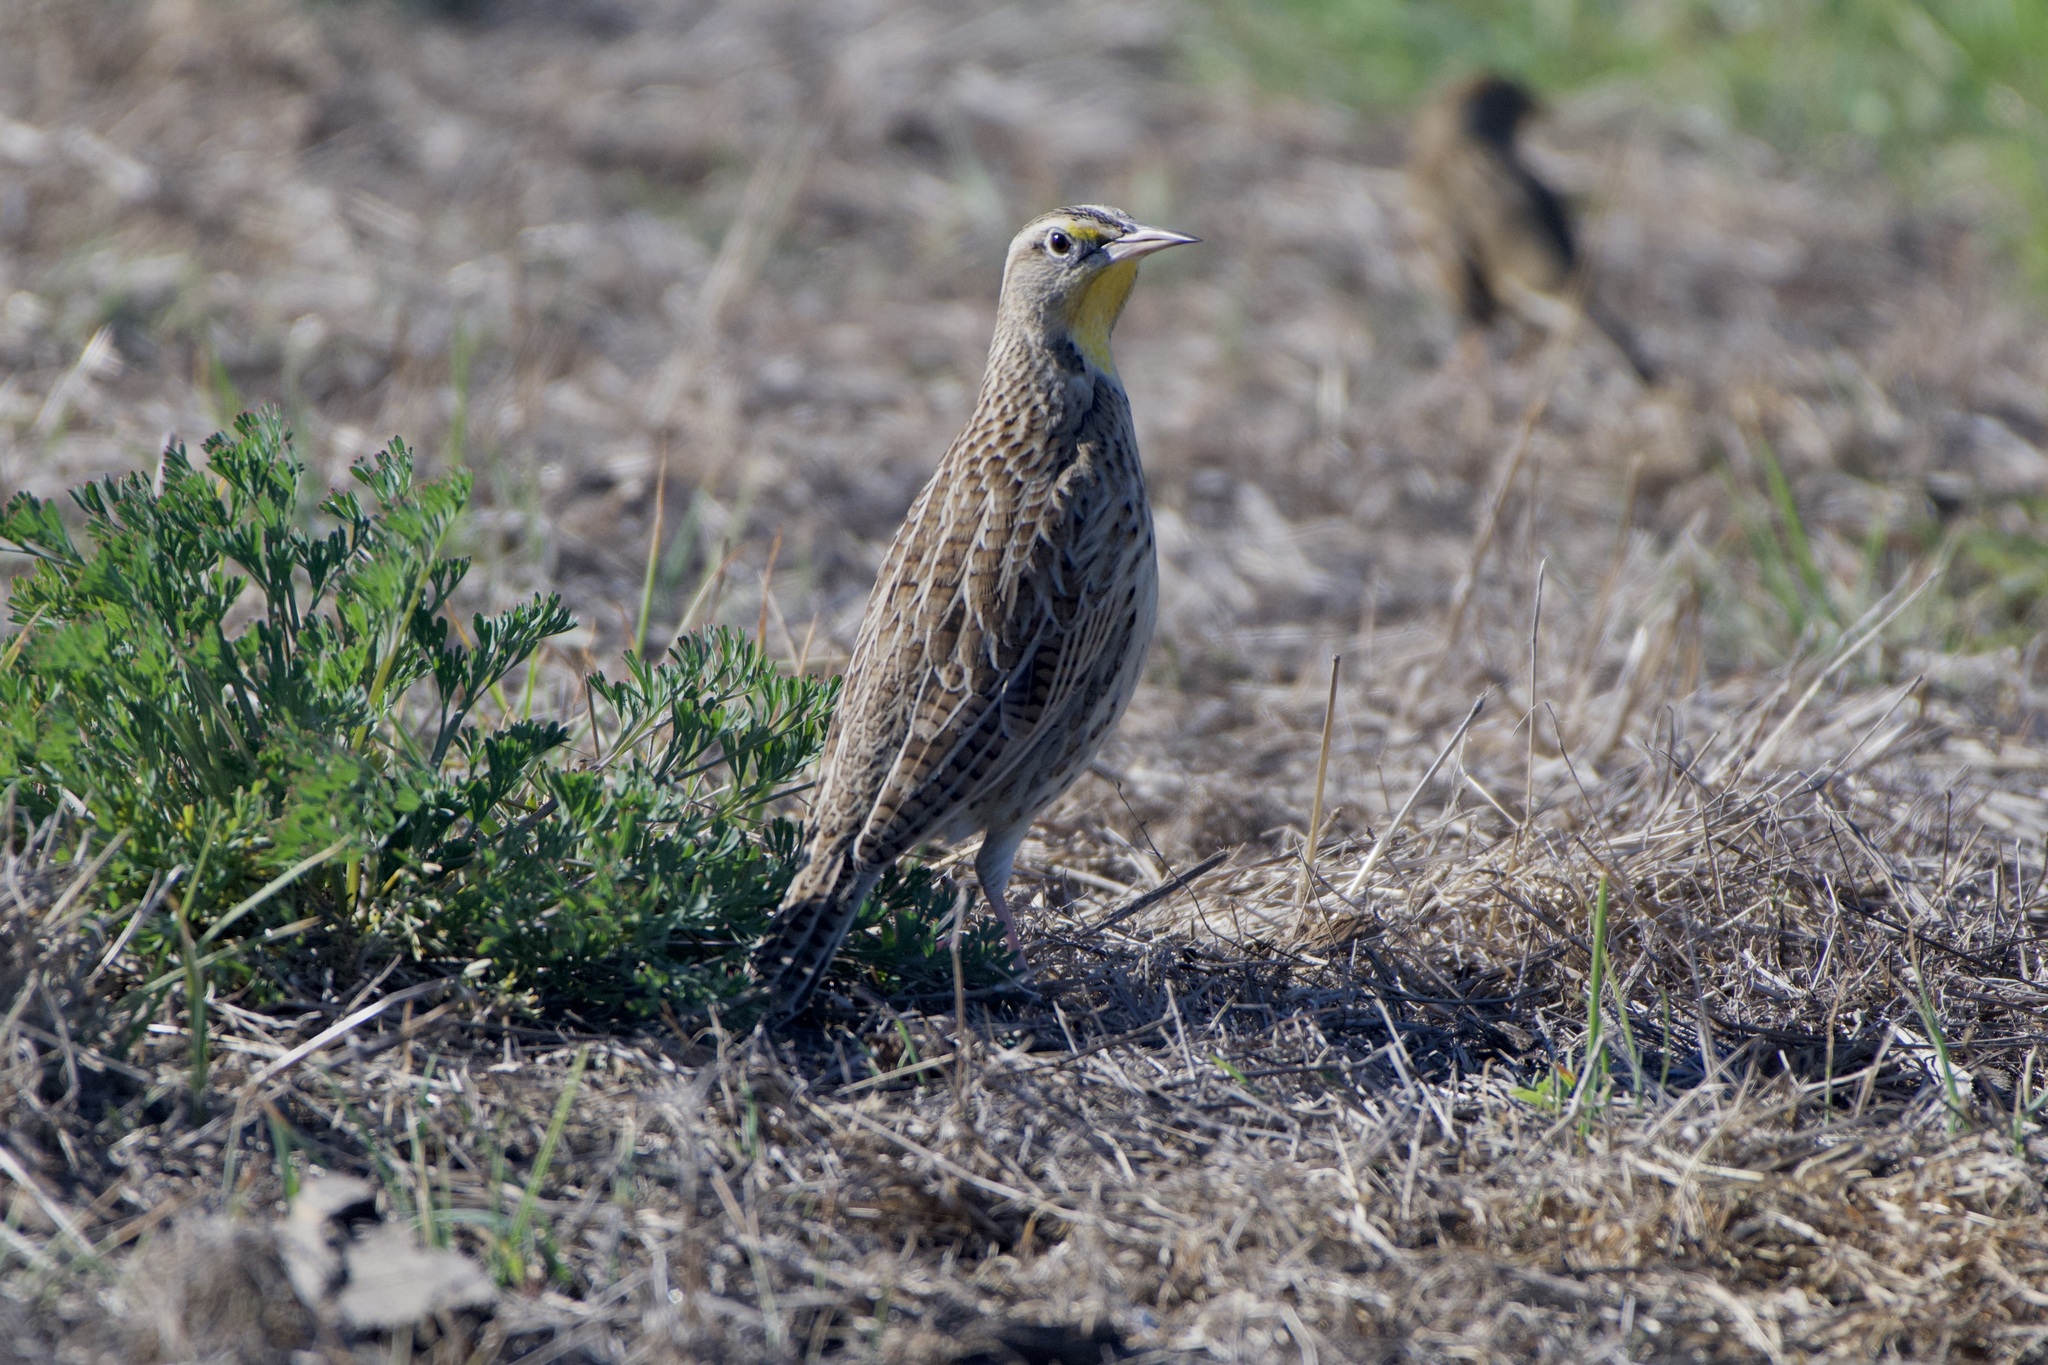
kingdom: Animalia
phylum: Chordata
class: Aves
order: Passeriformes
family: Icteridae
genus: Sturnella
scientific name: Sturnella neglecta
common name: Western meadowlark
